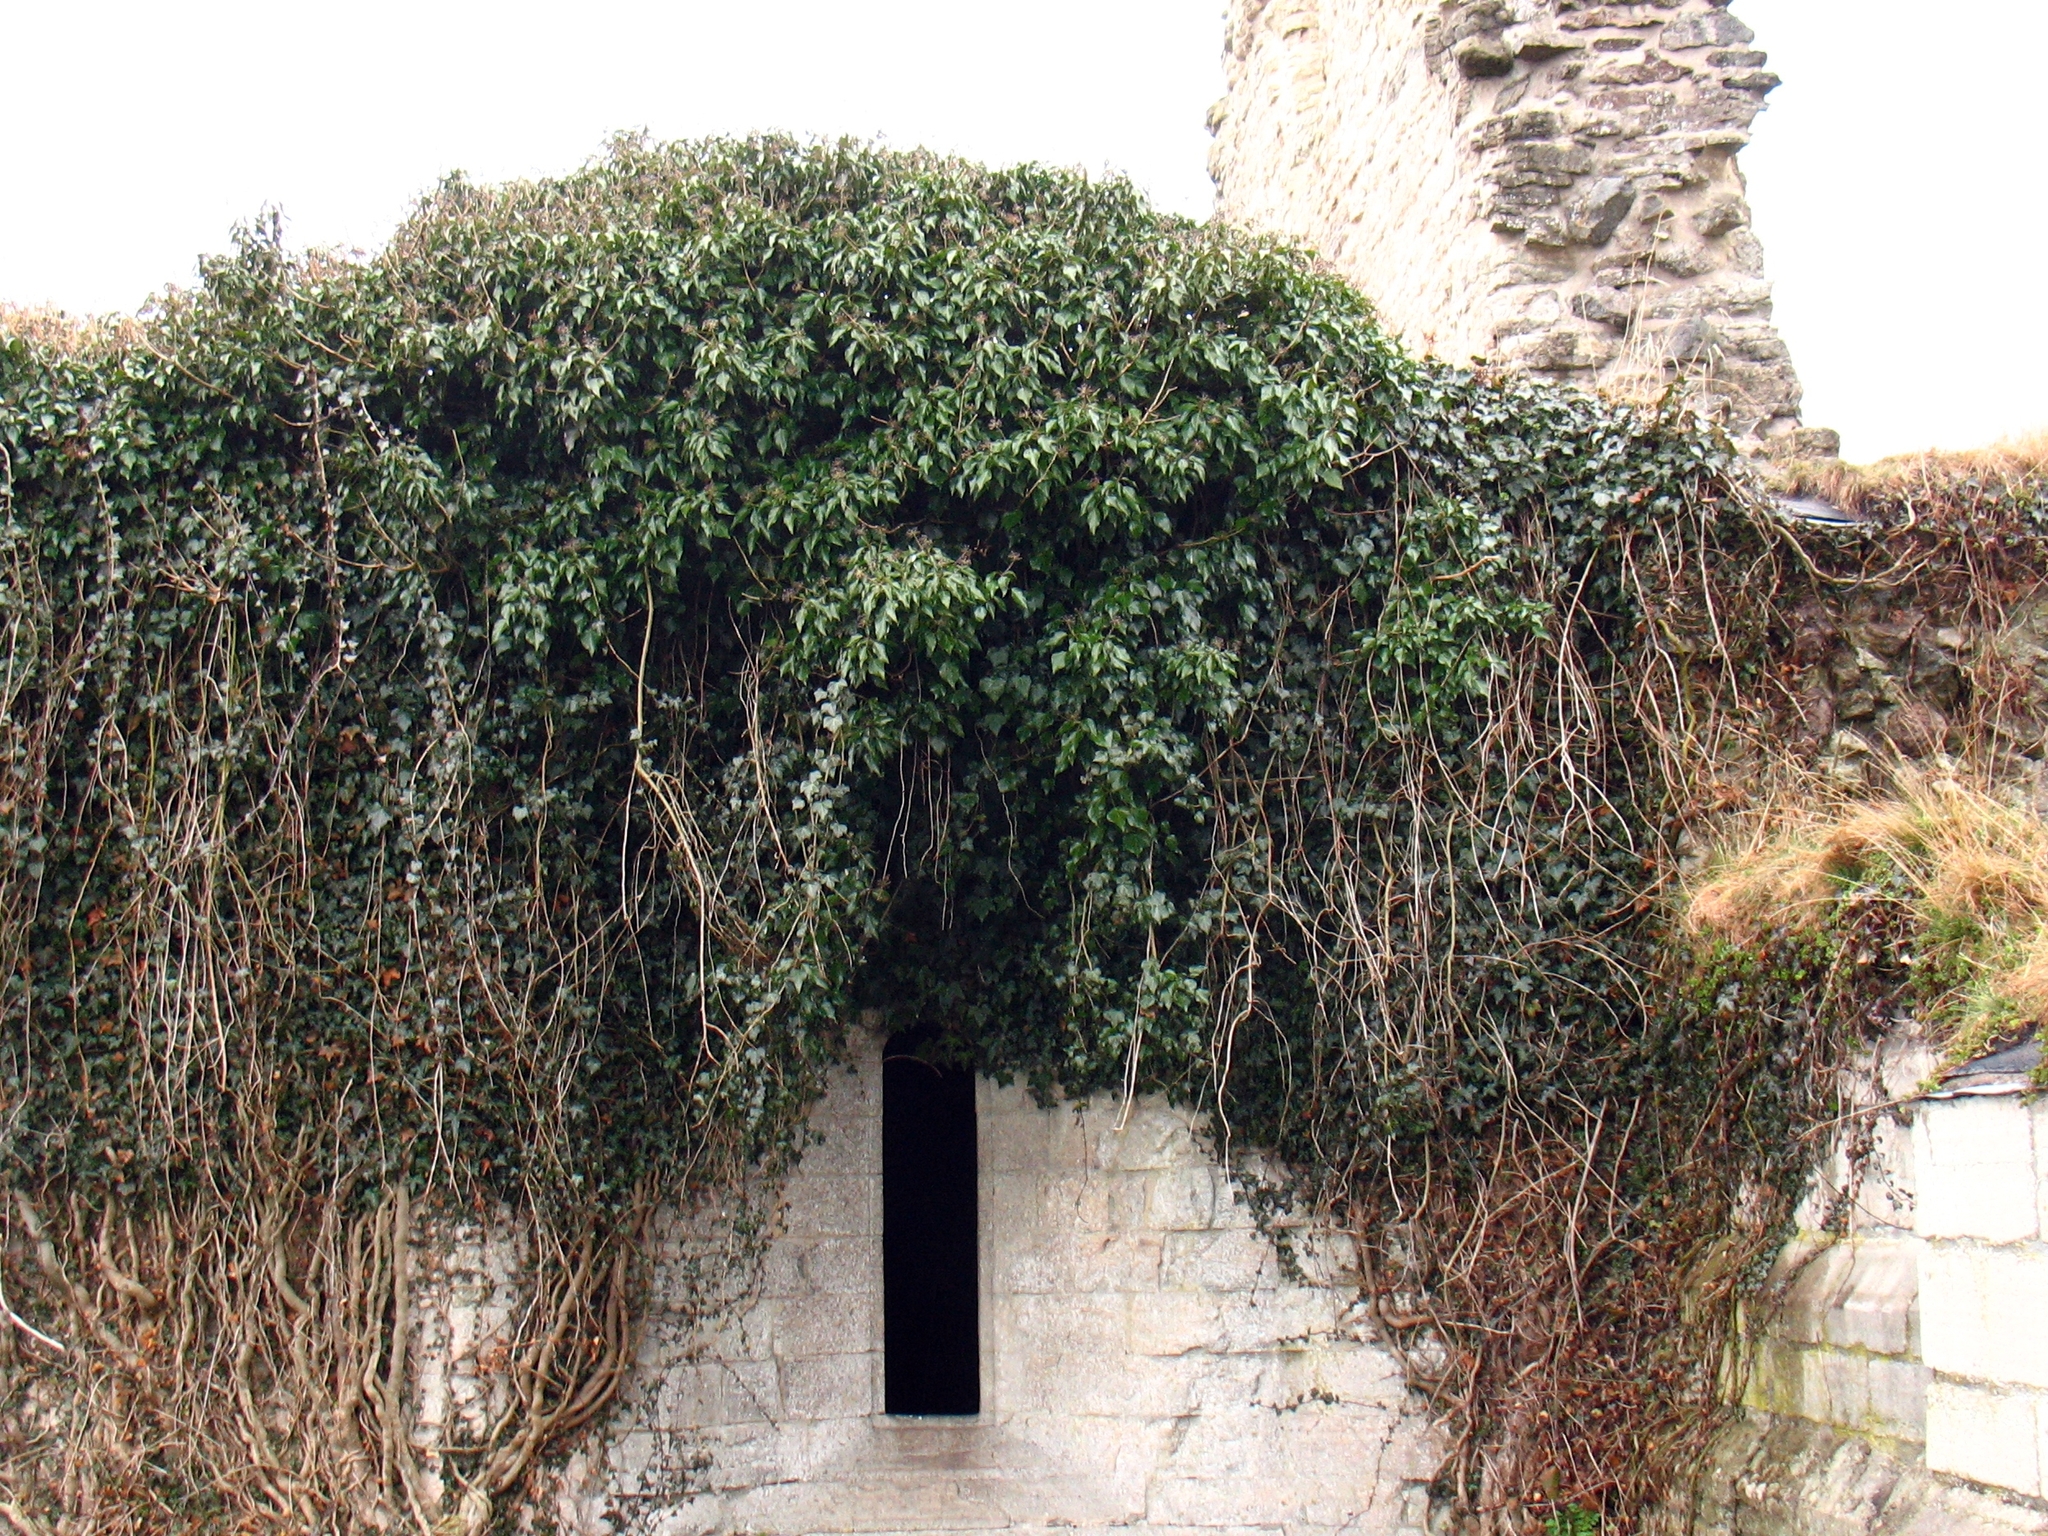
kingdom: Plantae
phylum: Tracheophyta
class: Magnoliopsida
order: Apiales
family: Araliaceae
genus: Hedera
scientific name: Hedera helix
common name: Ivy
